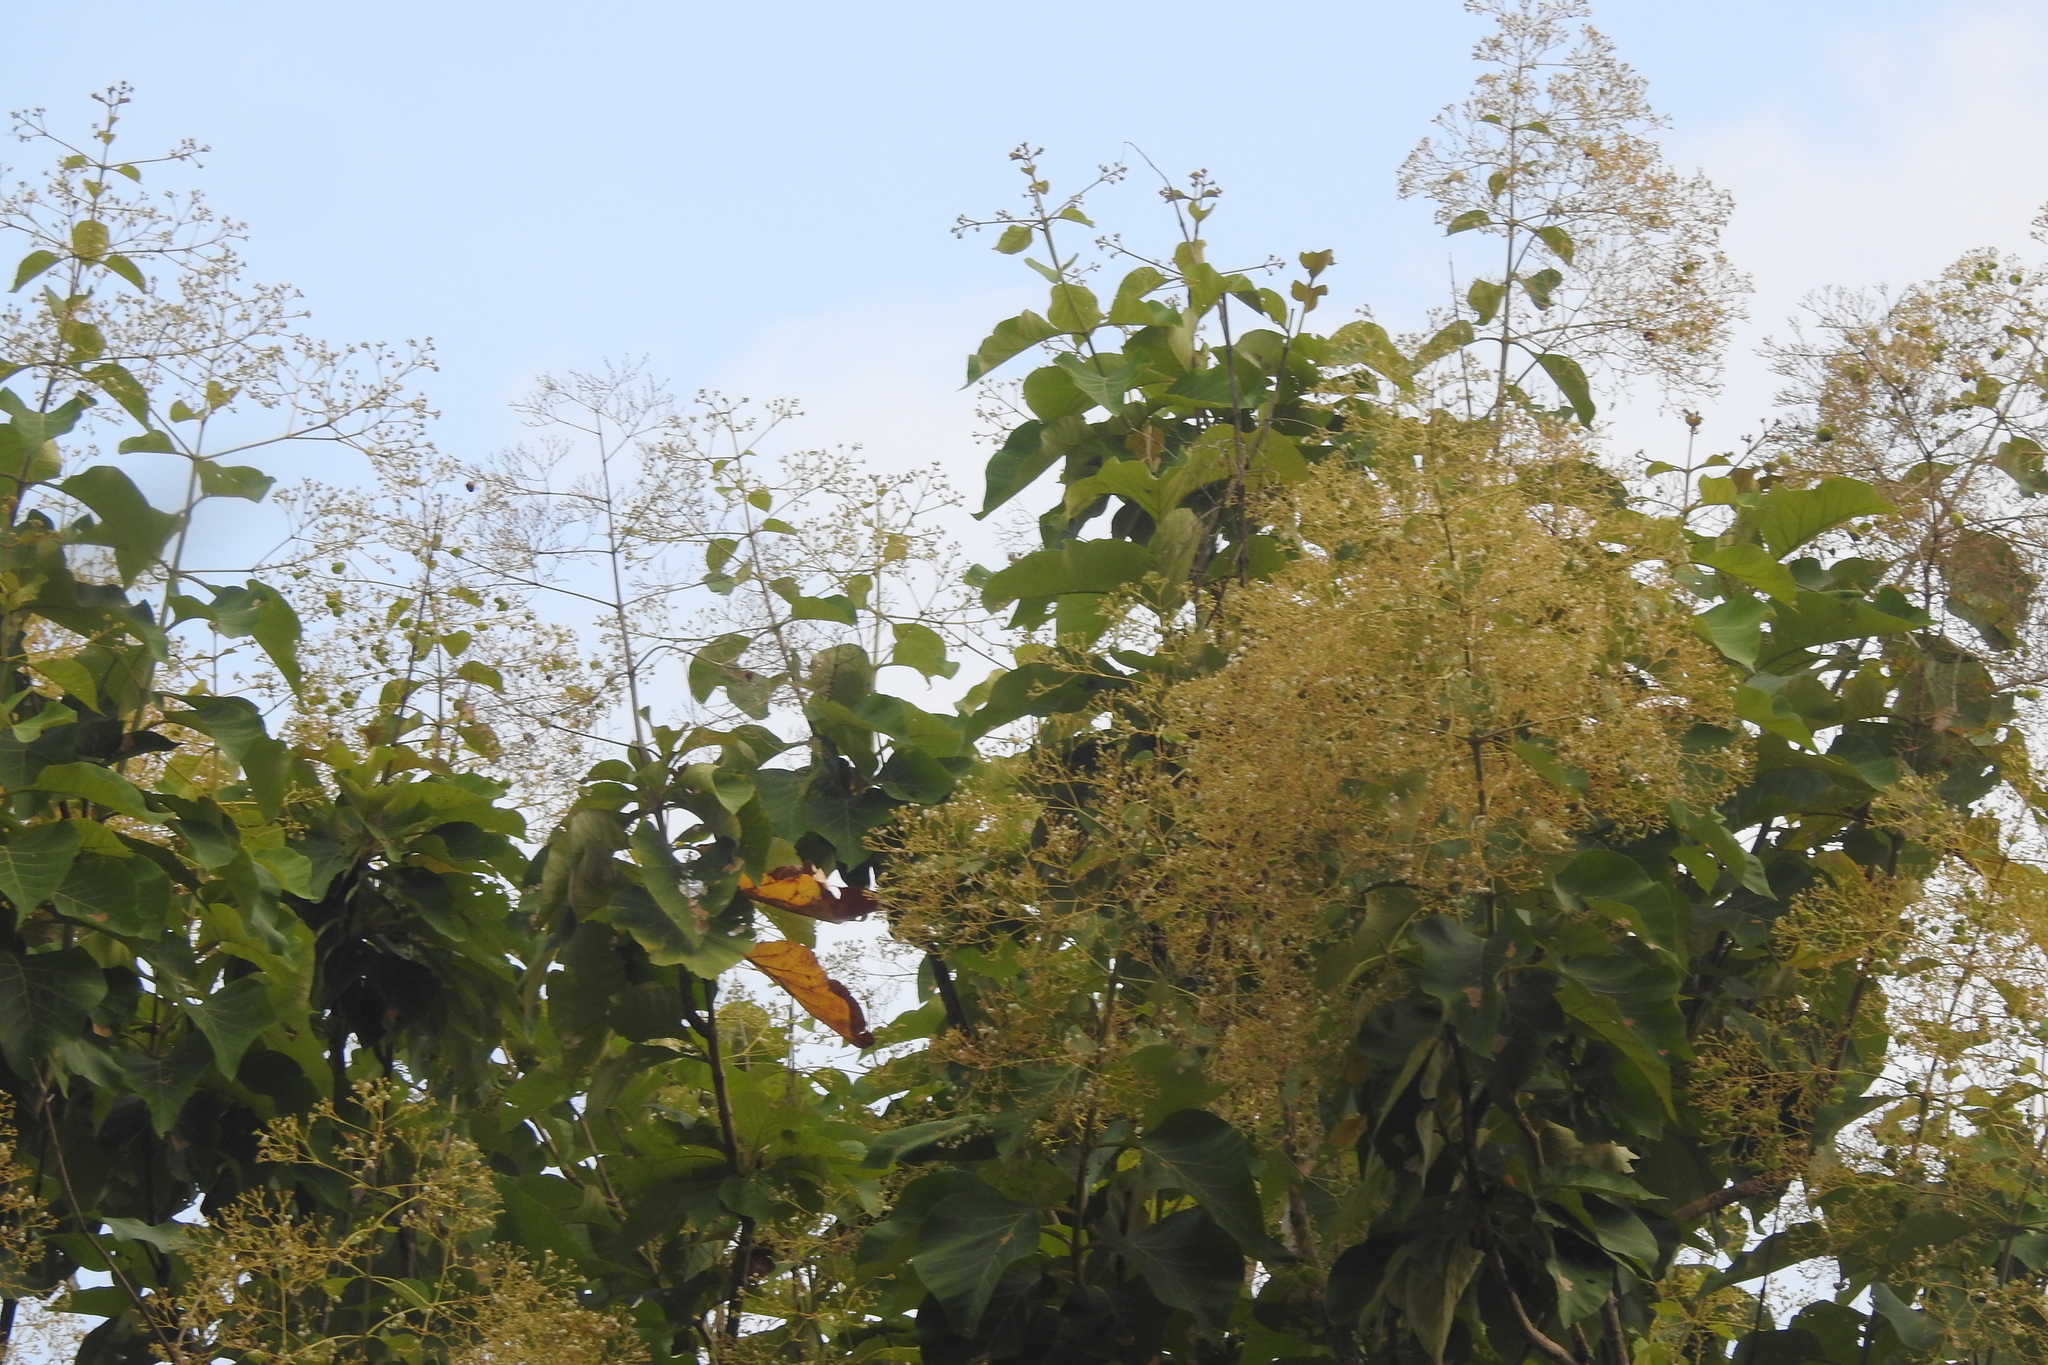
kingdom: Plantae
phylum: Tracheophyta
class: Magnoliopsida
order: Lamiales
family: Lamiaceae
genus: Tectona
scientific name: Tectona grandis
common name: Teak
